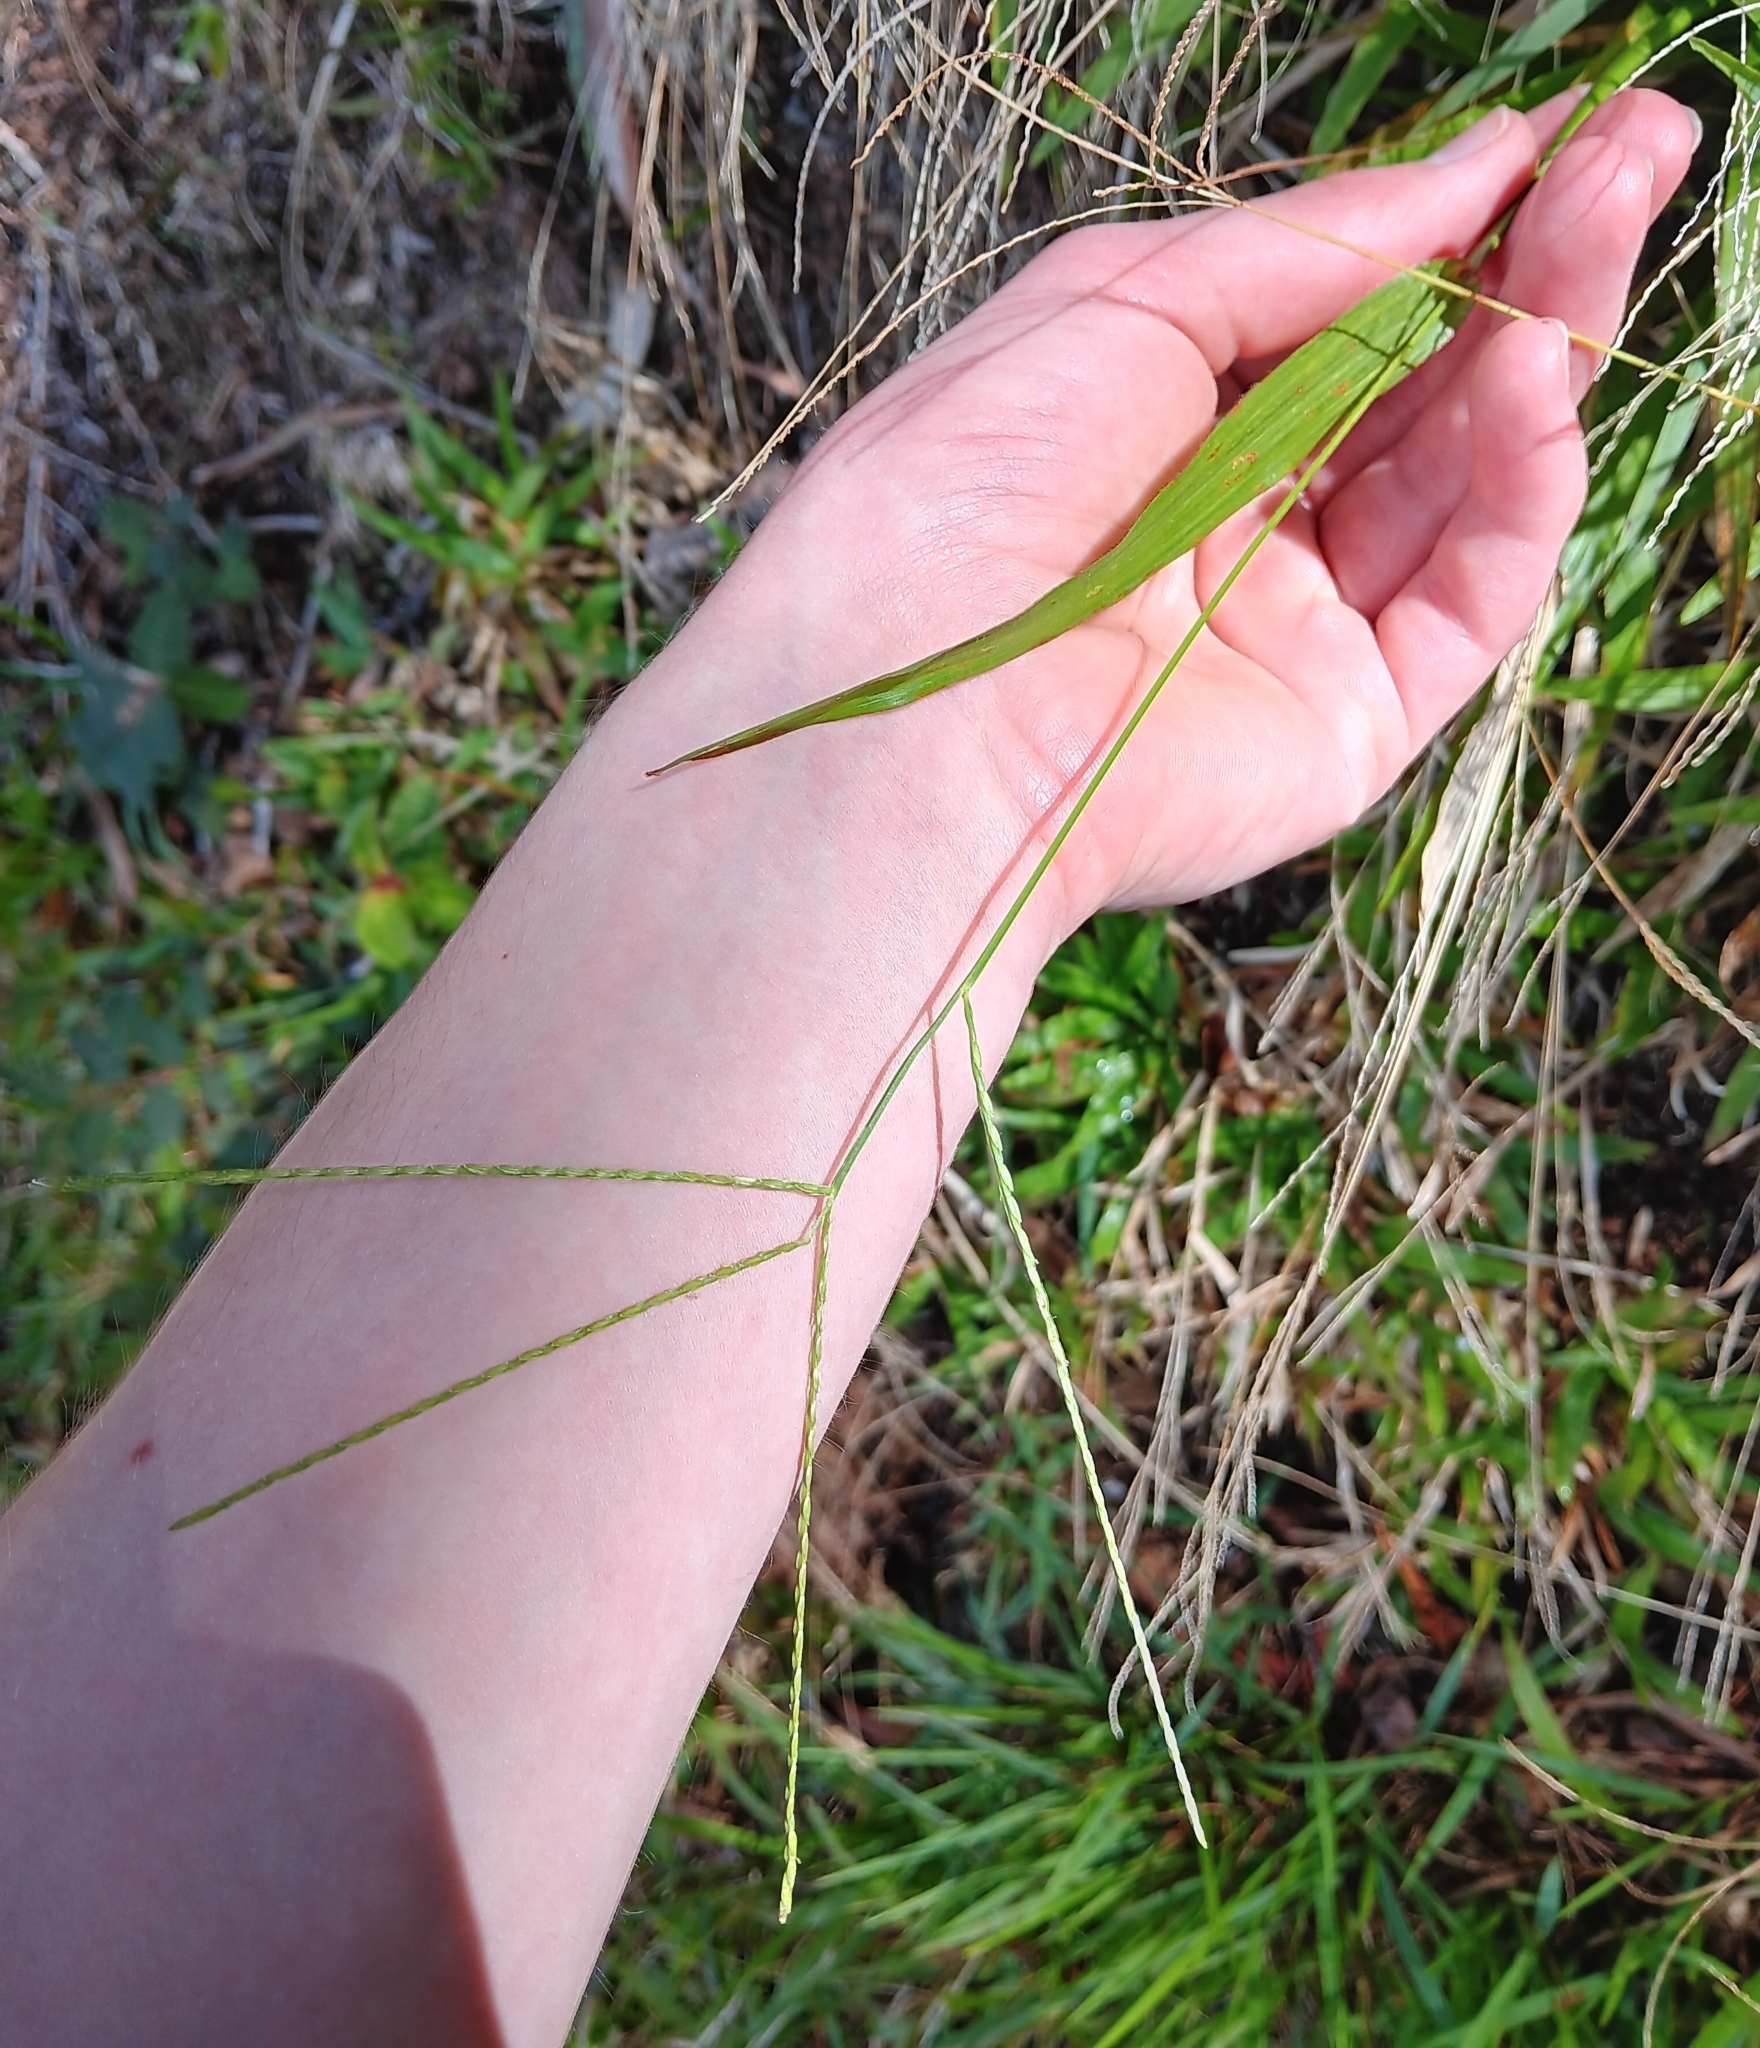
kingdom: Plantae
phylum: Tracheophyta
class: Liliopsida
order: Poales
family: Poaceae
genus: Axonopus
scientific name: Axonopus compressus
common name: American carpet grass
